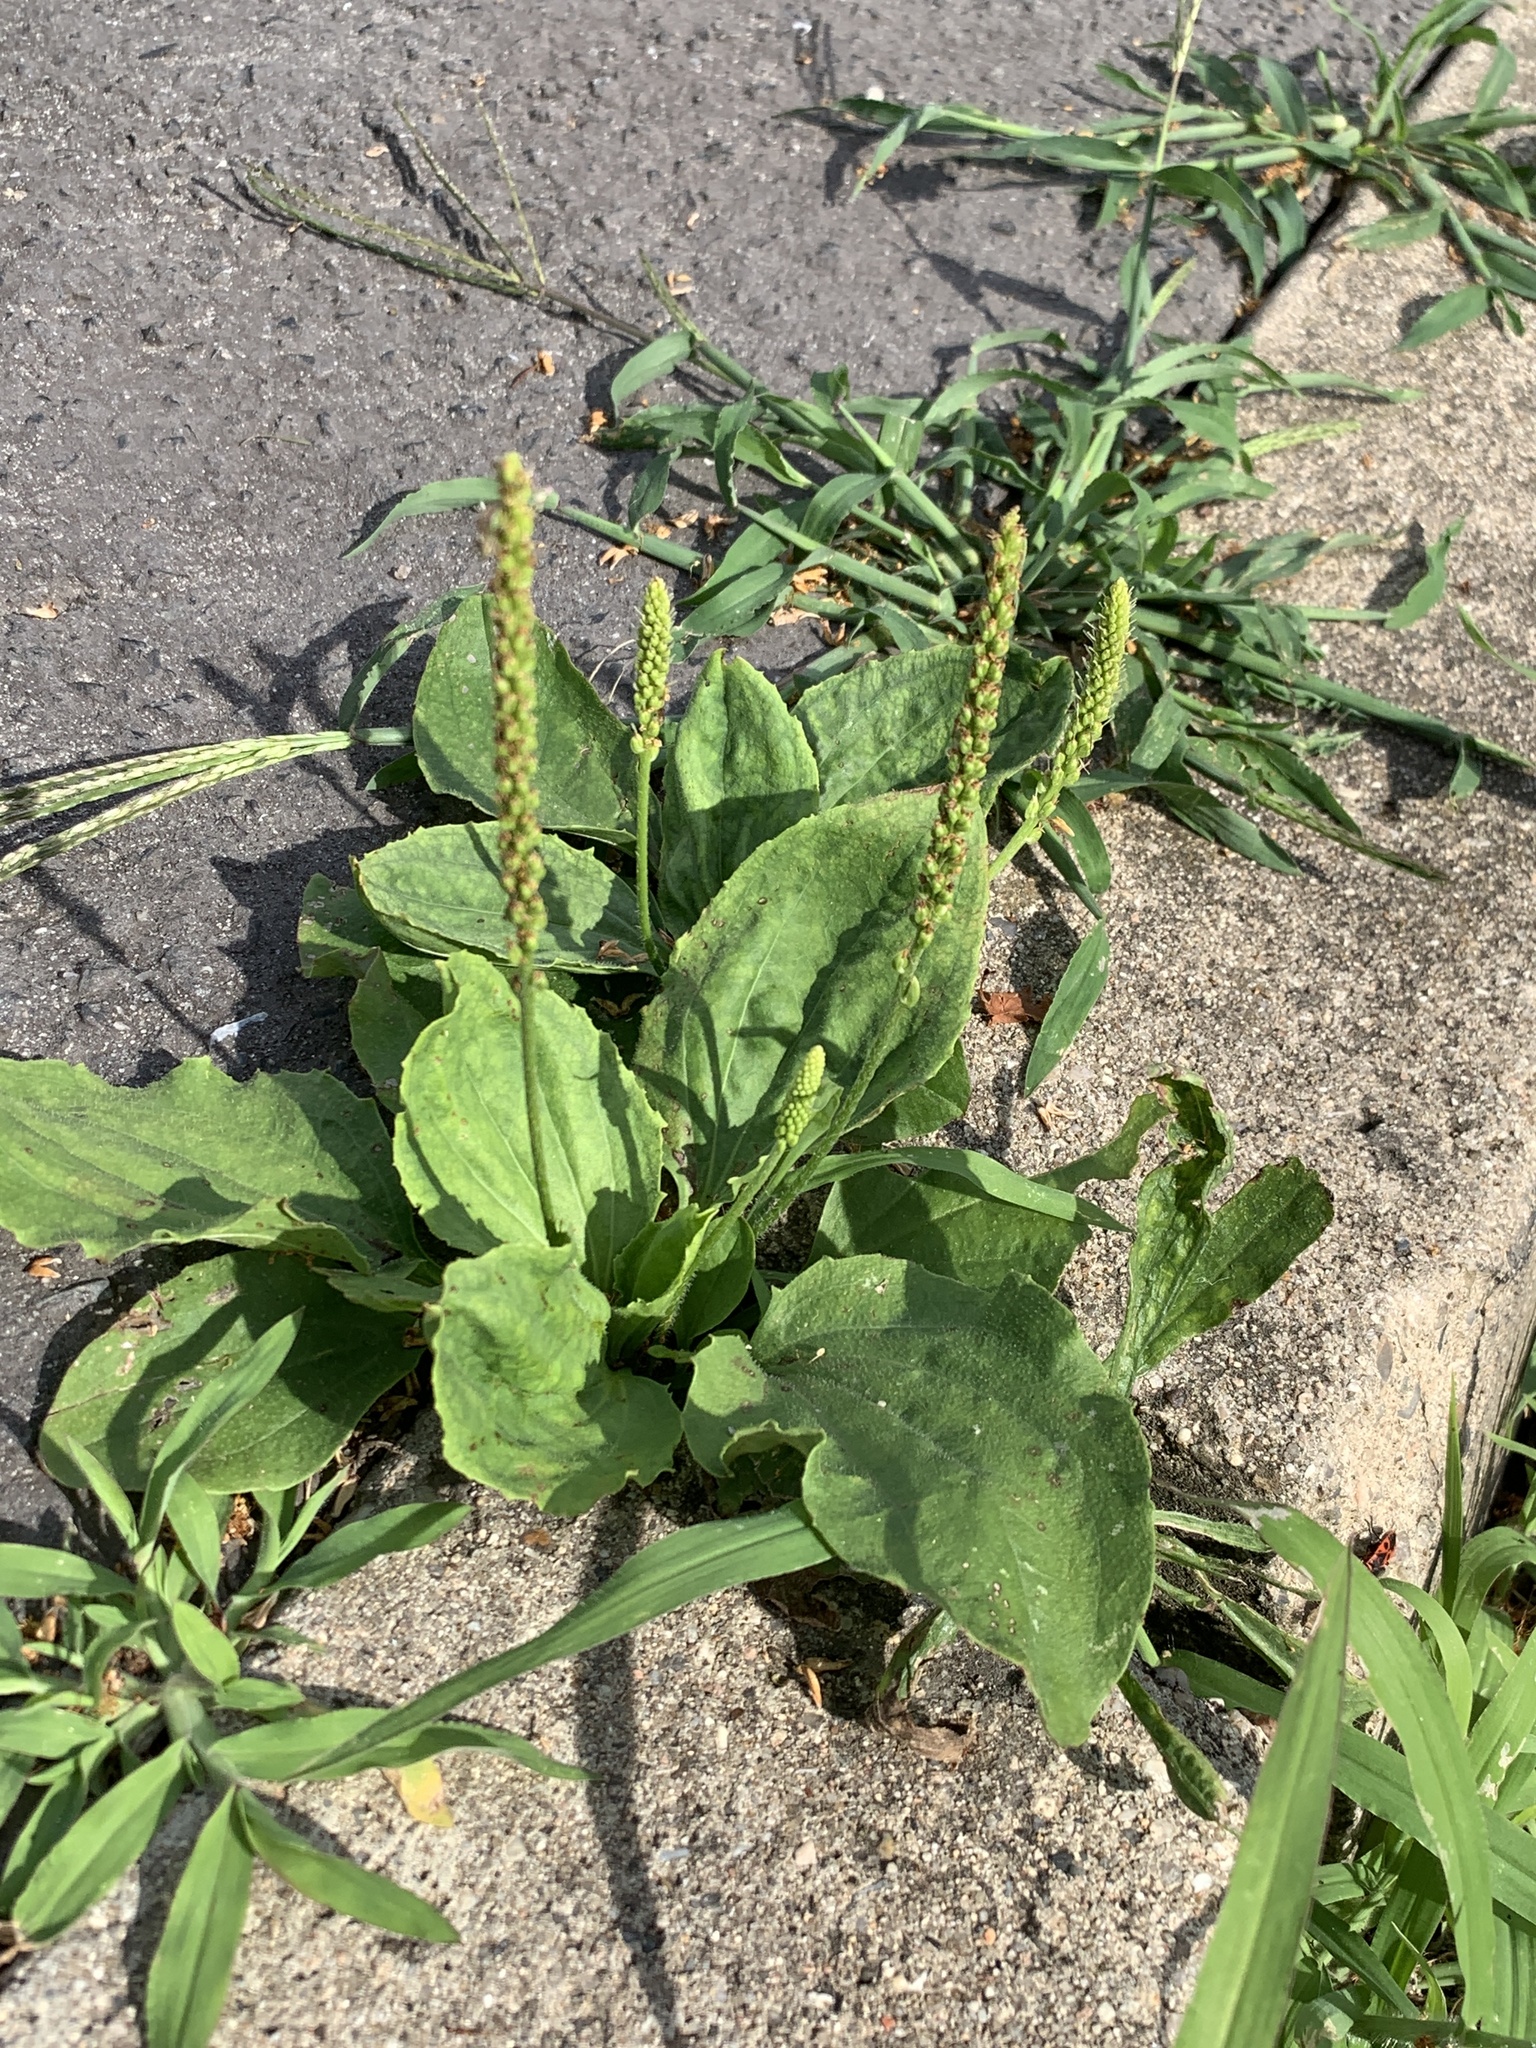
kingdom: Plantae
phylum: Tracheophyta
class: Magnoliopsida
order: Lamiales
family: Plantaginaceae
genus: Plantago
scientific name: Plantago major
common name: Common plantain
